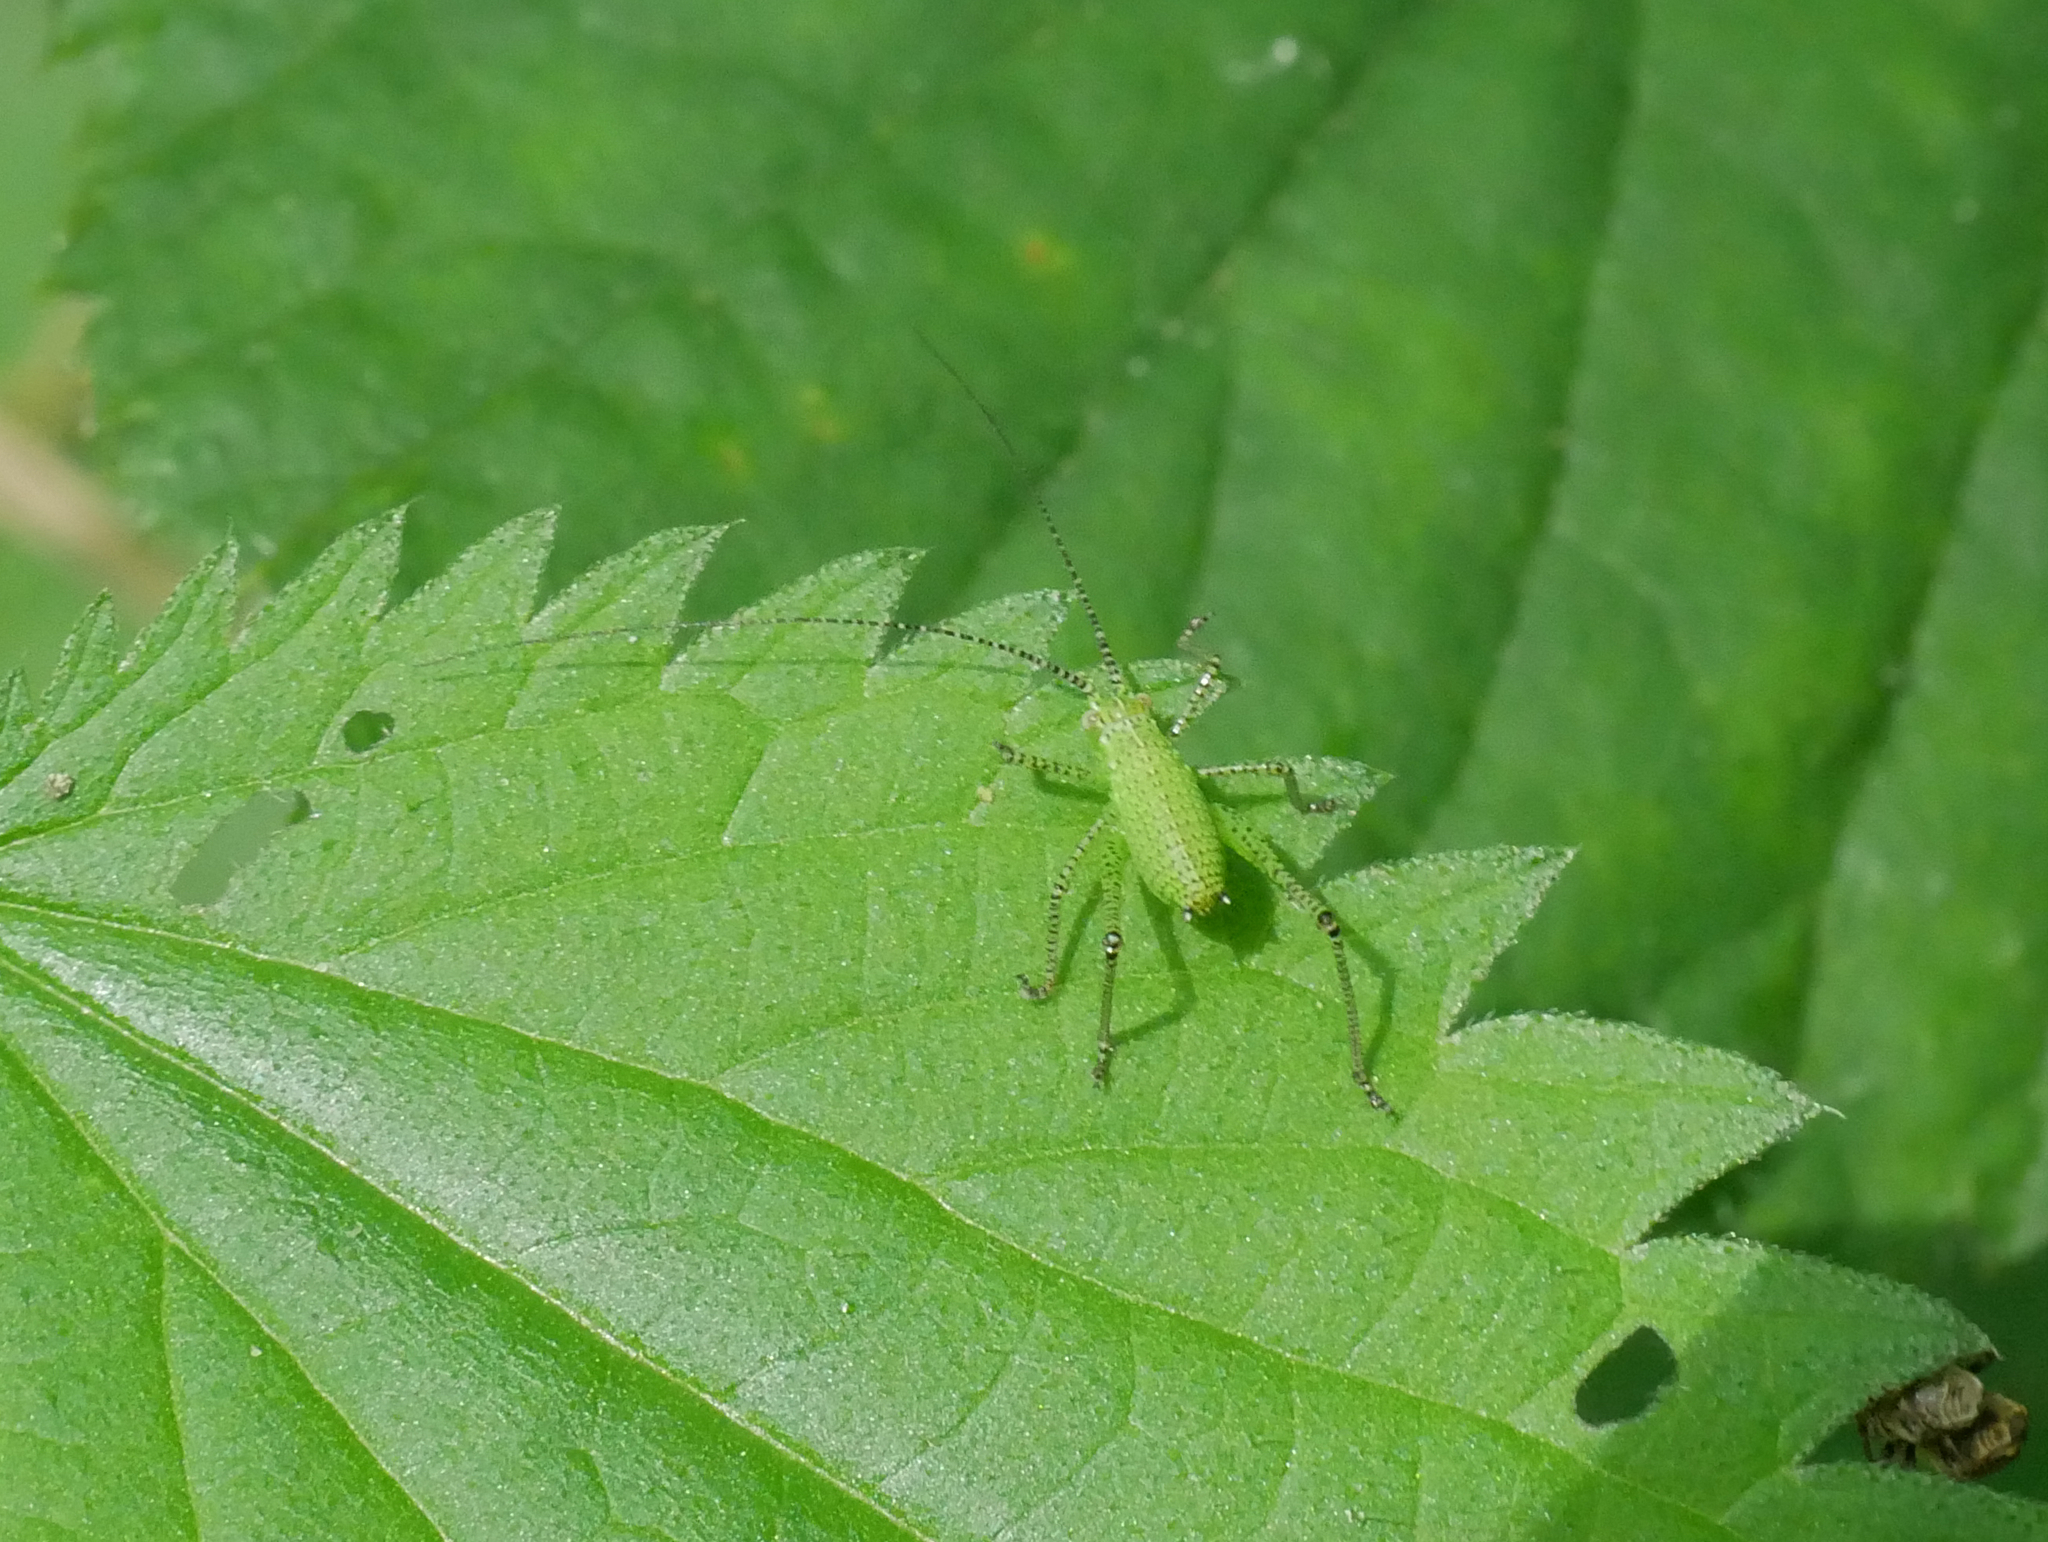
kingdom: Animalia
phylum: Arthropoda
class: Insecta
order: Orthoptera
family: Tettigoniidae
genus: Leptophyes
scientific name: Leptophyes punctatissima
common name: Speckled bush-cricket
